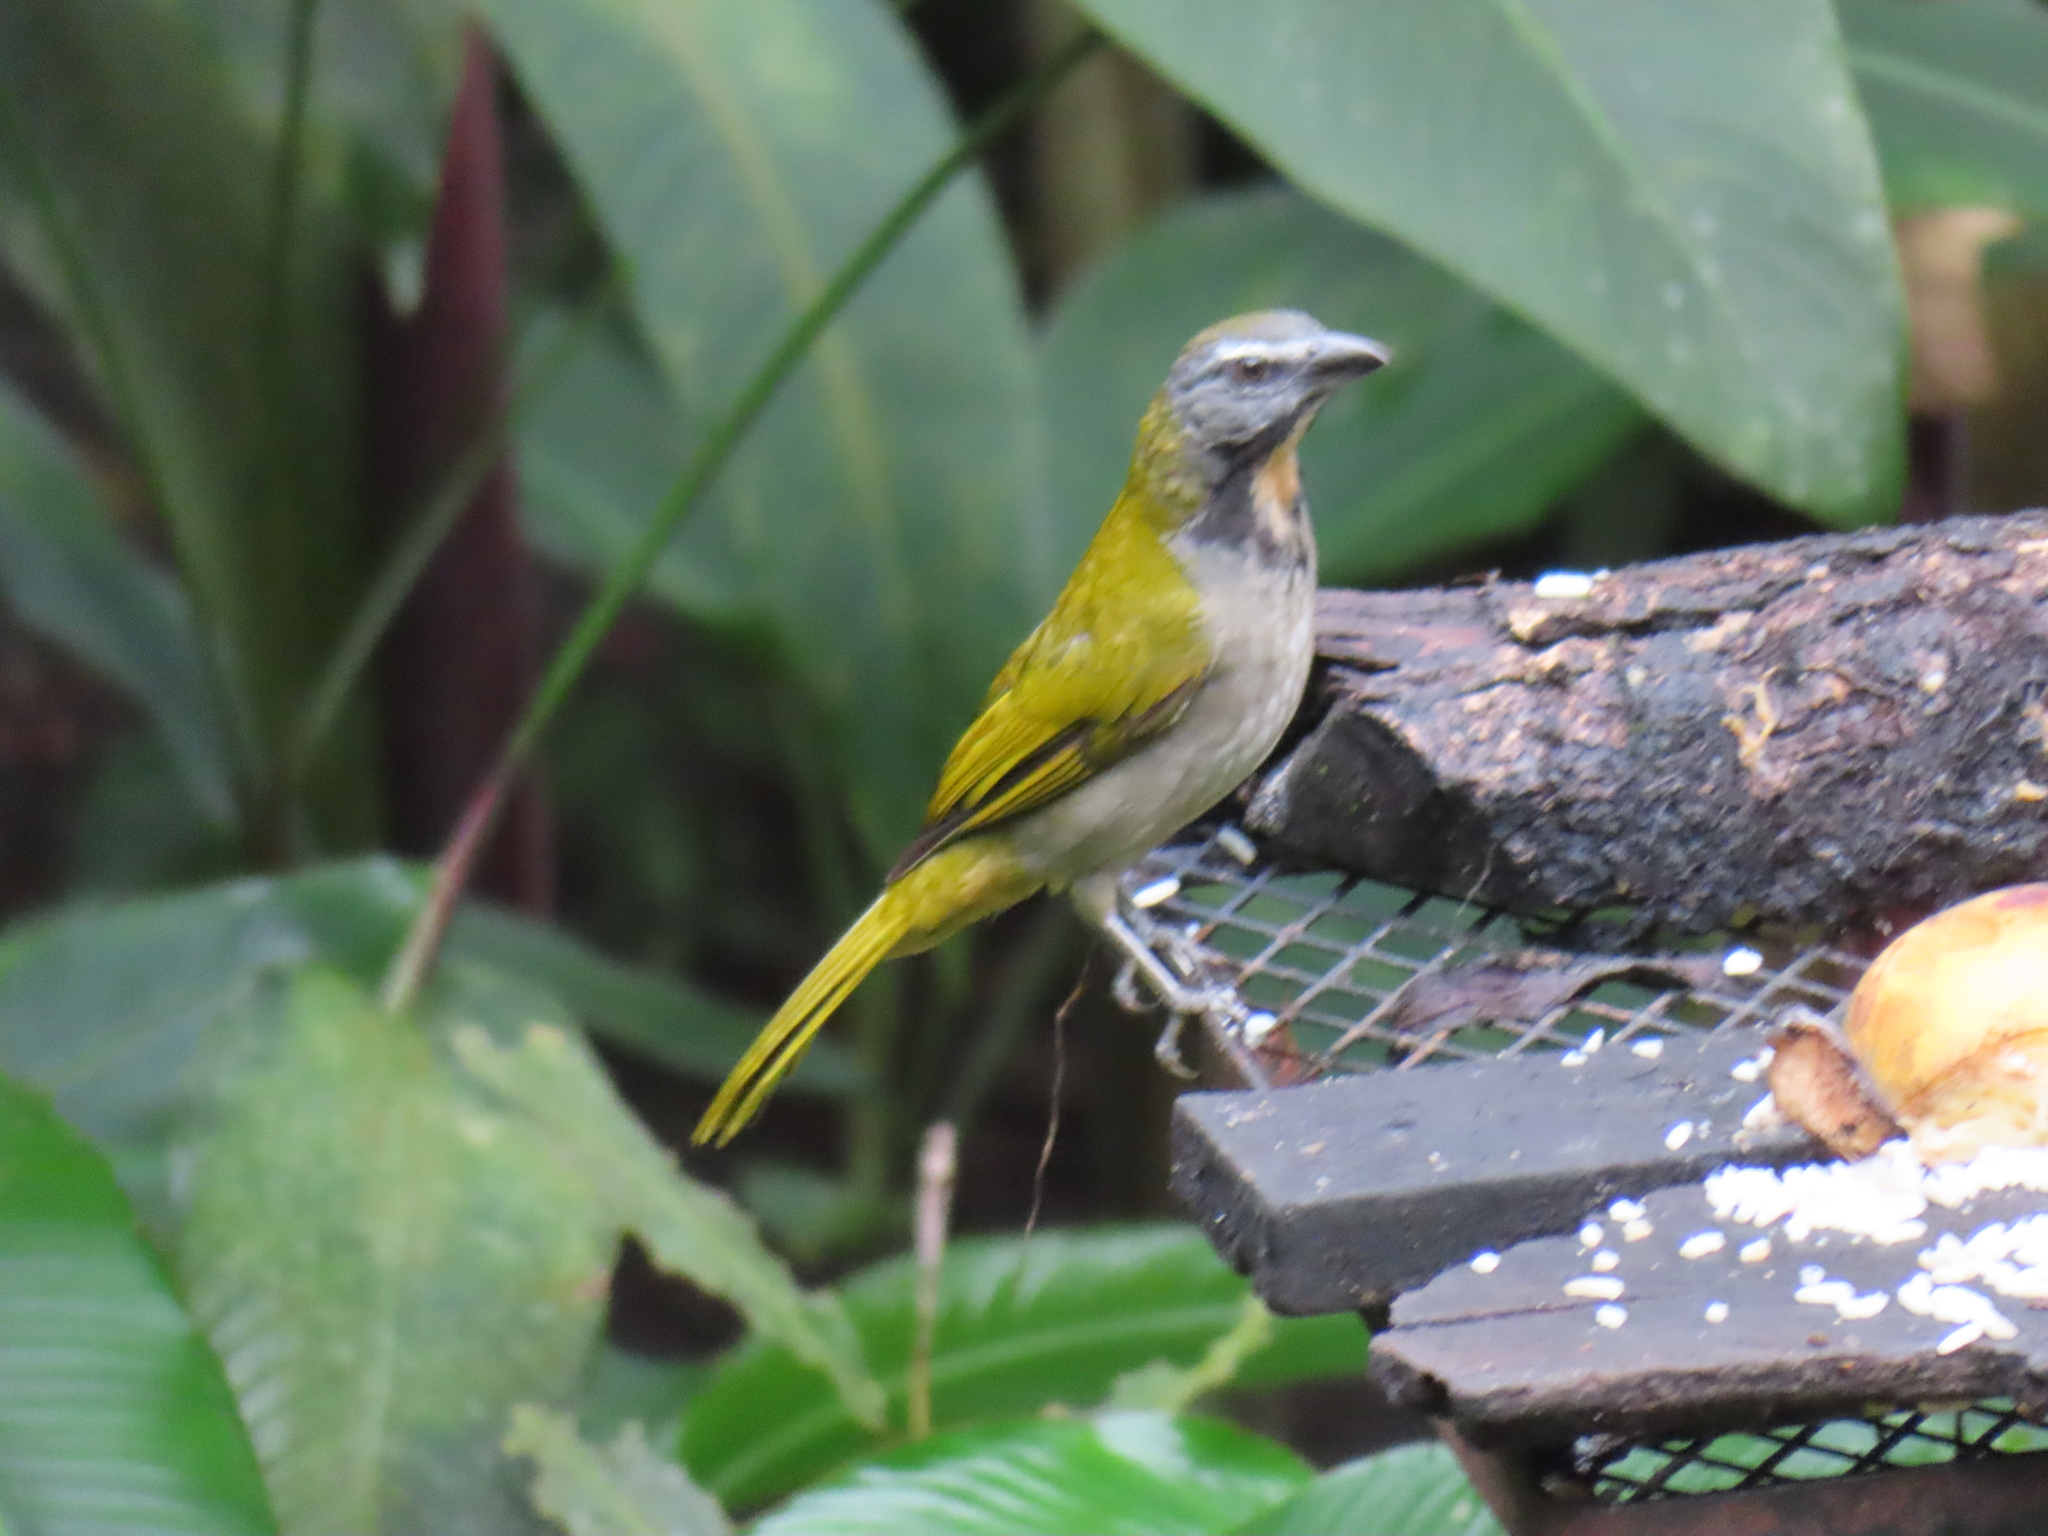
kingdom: Animalia
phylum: Chordata
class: Aves
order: Passeriformes
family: Thraupidae
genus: Saltator
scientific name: Saltator maximus
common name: Buff-throated saltator
